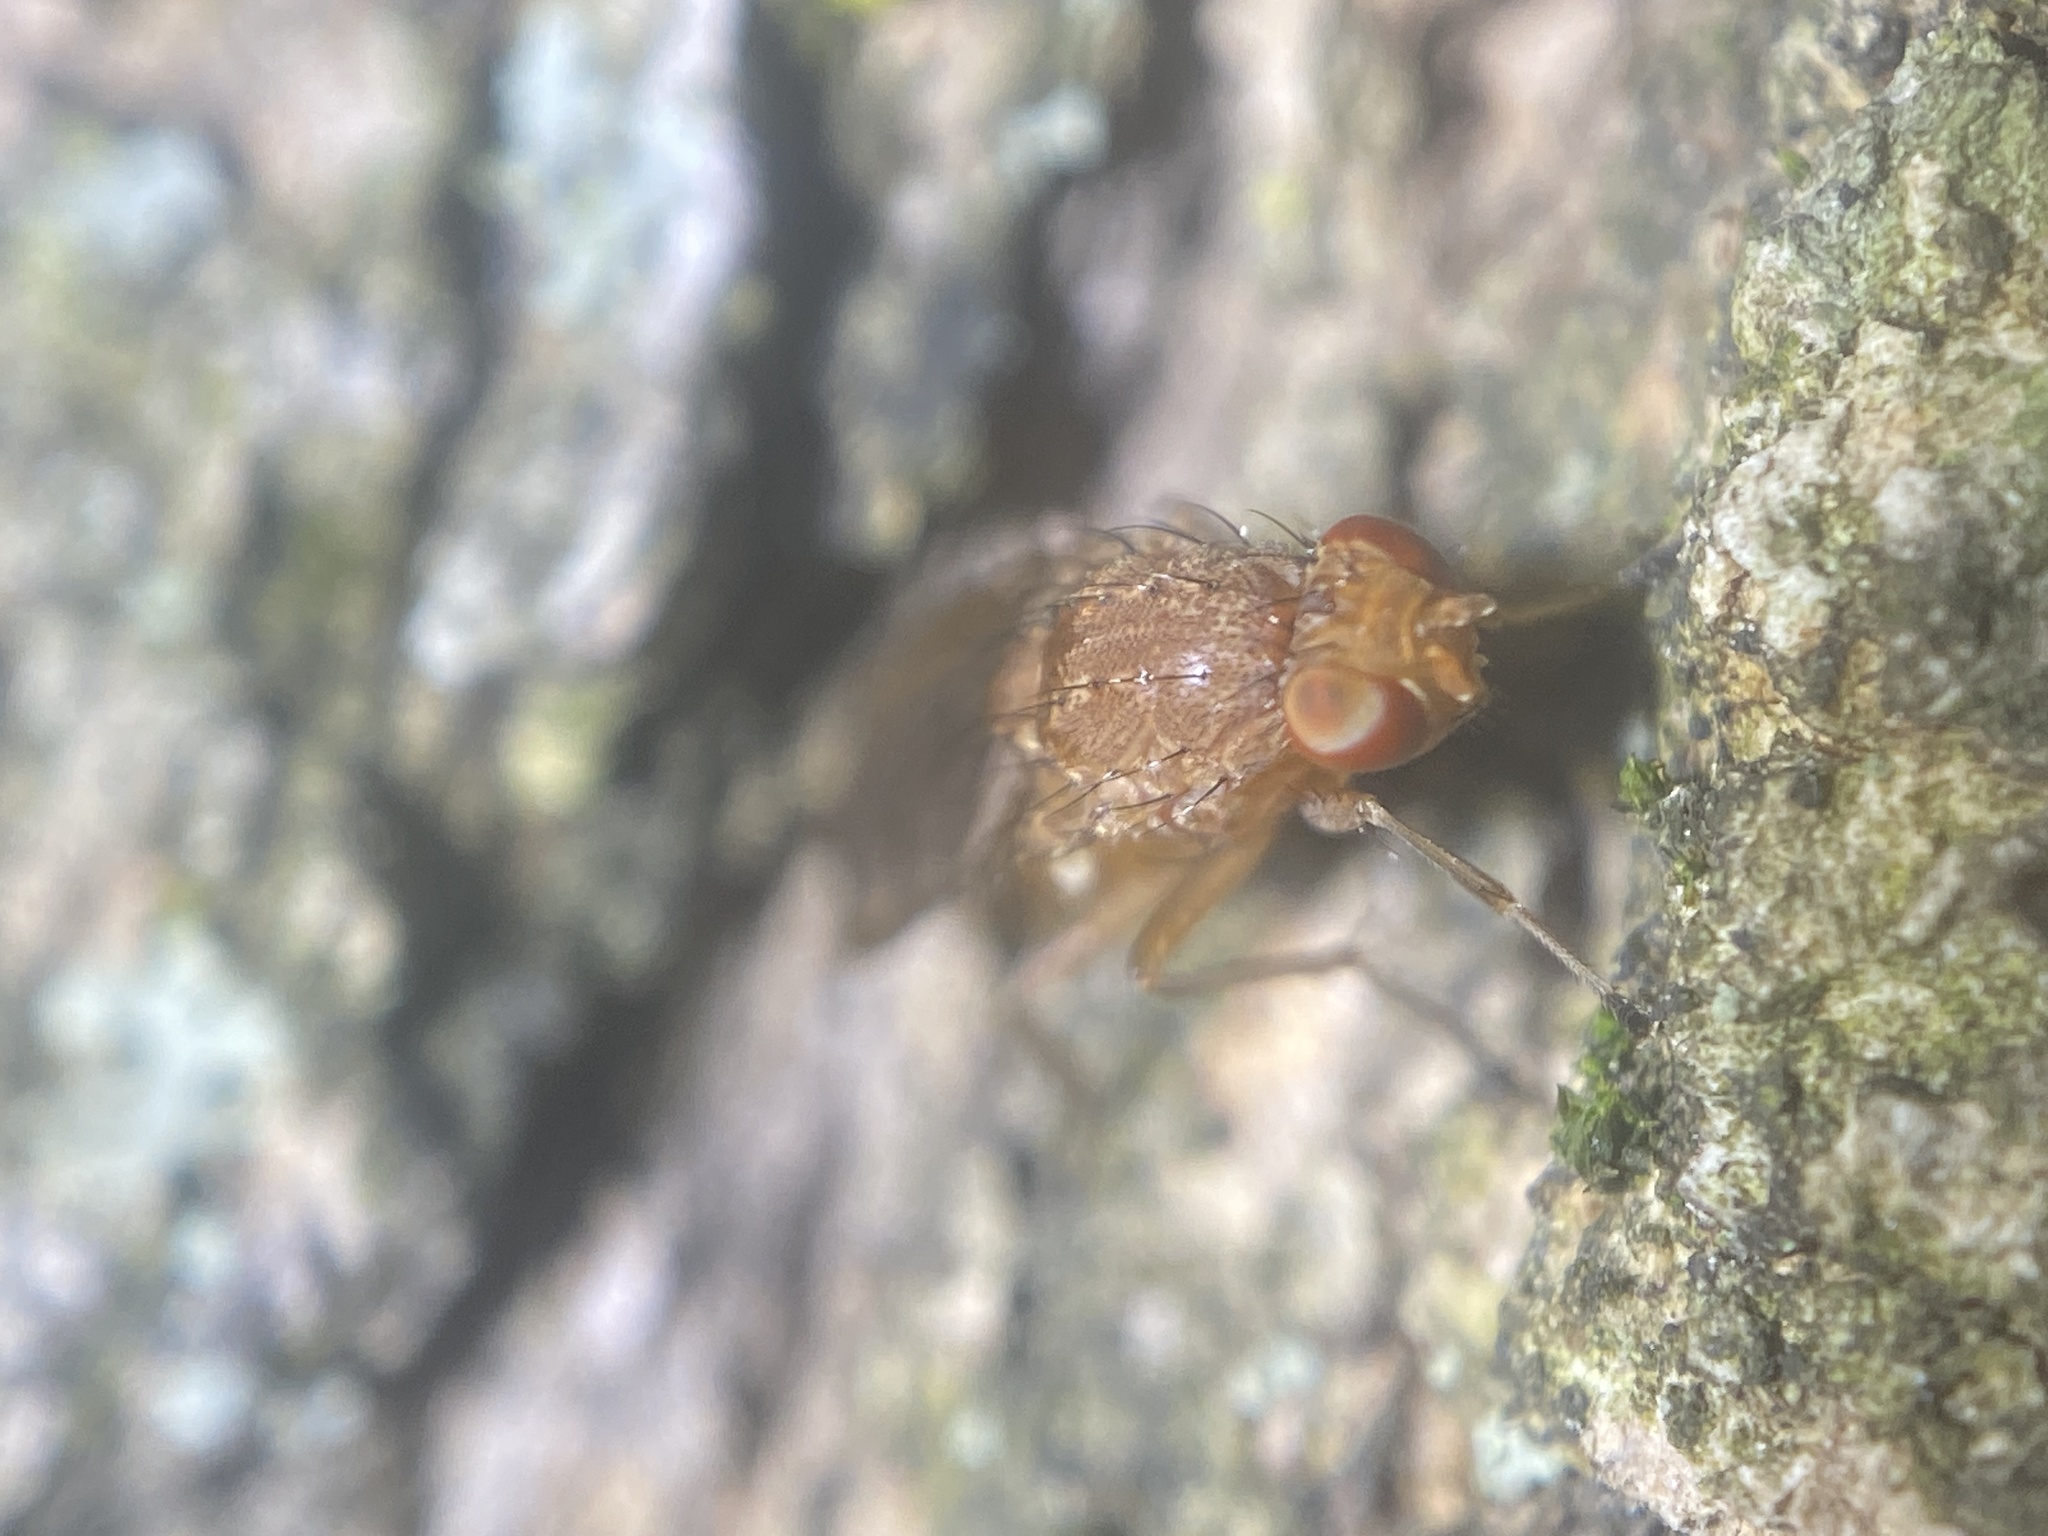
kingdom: Animalia
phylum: Arthropoda
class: Insecta
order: Diptera
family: Heleomyzidae
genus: Suillia
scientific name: Suillia quinquepunctata
